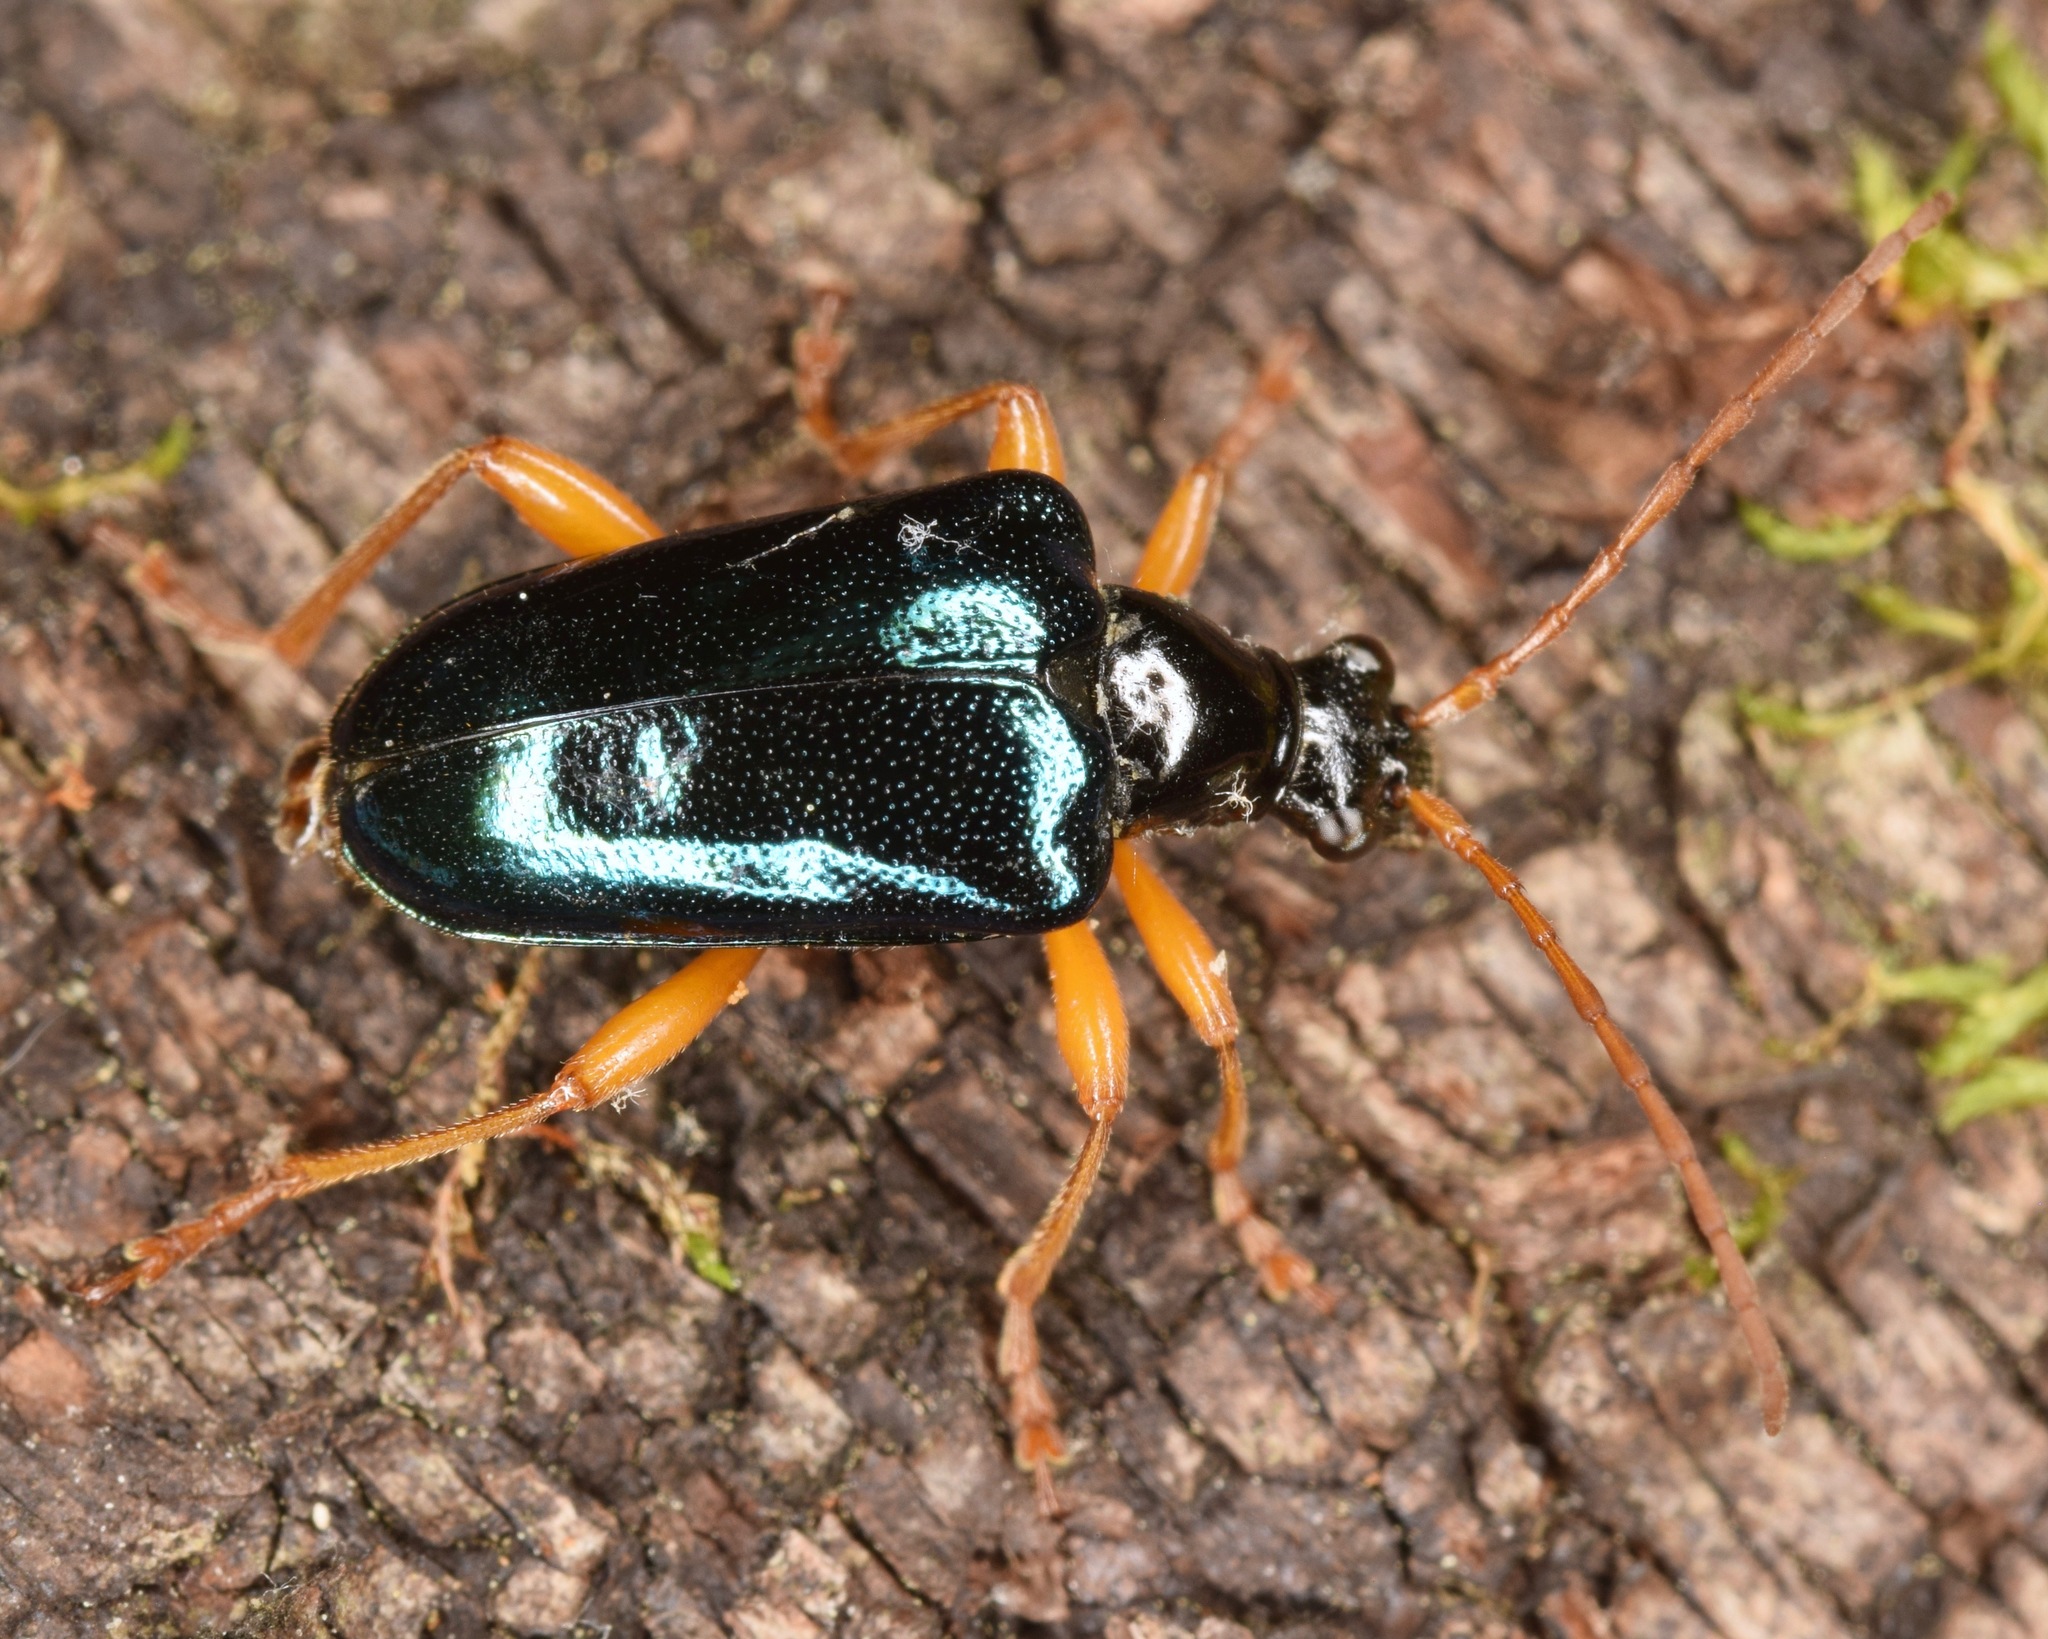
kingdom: Animalia
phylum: Arthropoda
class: Insecta
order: Coleoptera
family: Cerambycidae
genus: Gaurotes
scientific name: Gaurotes cyanipennis
